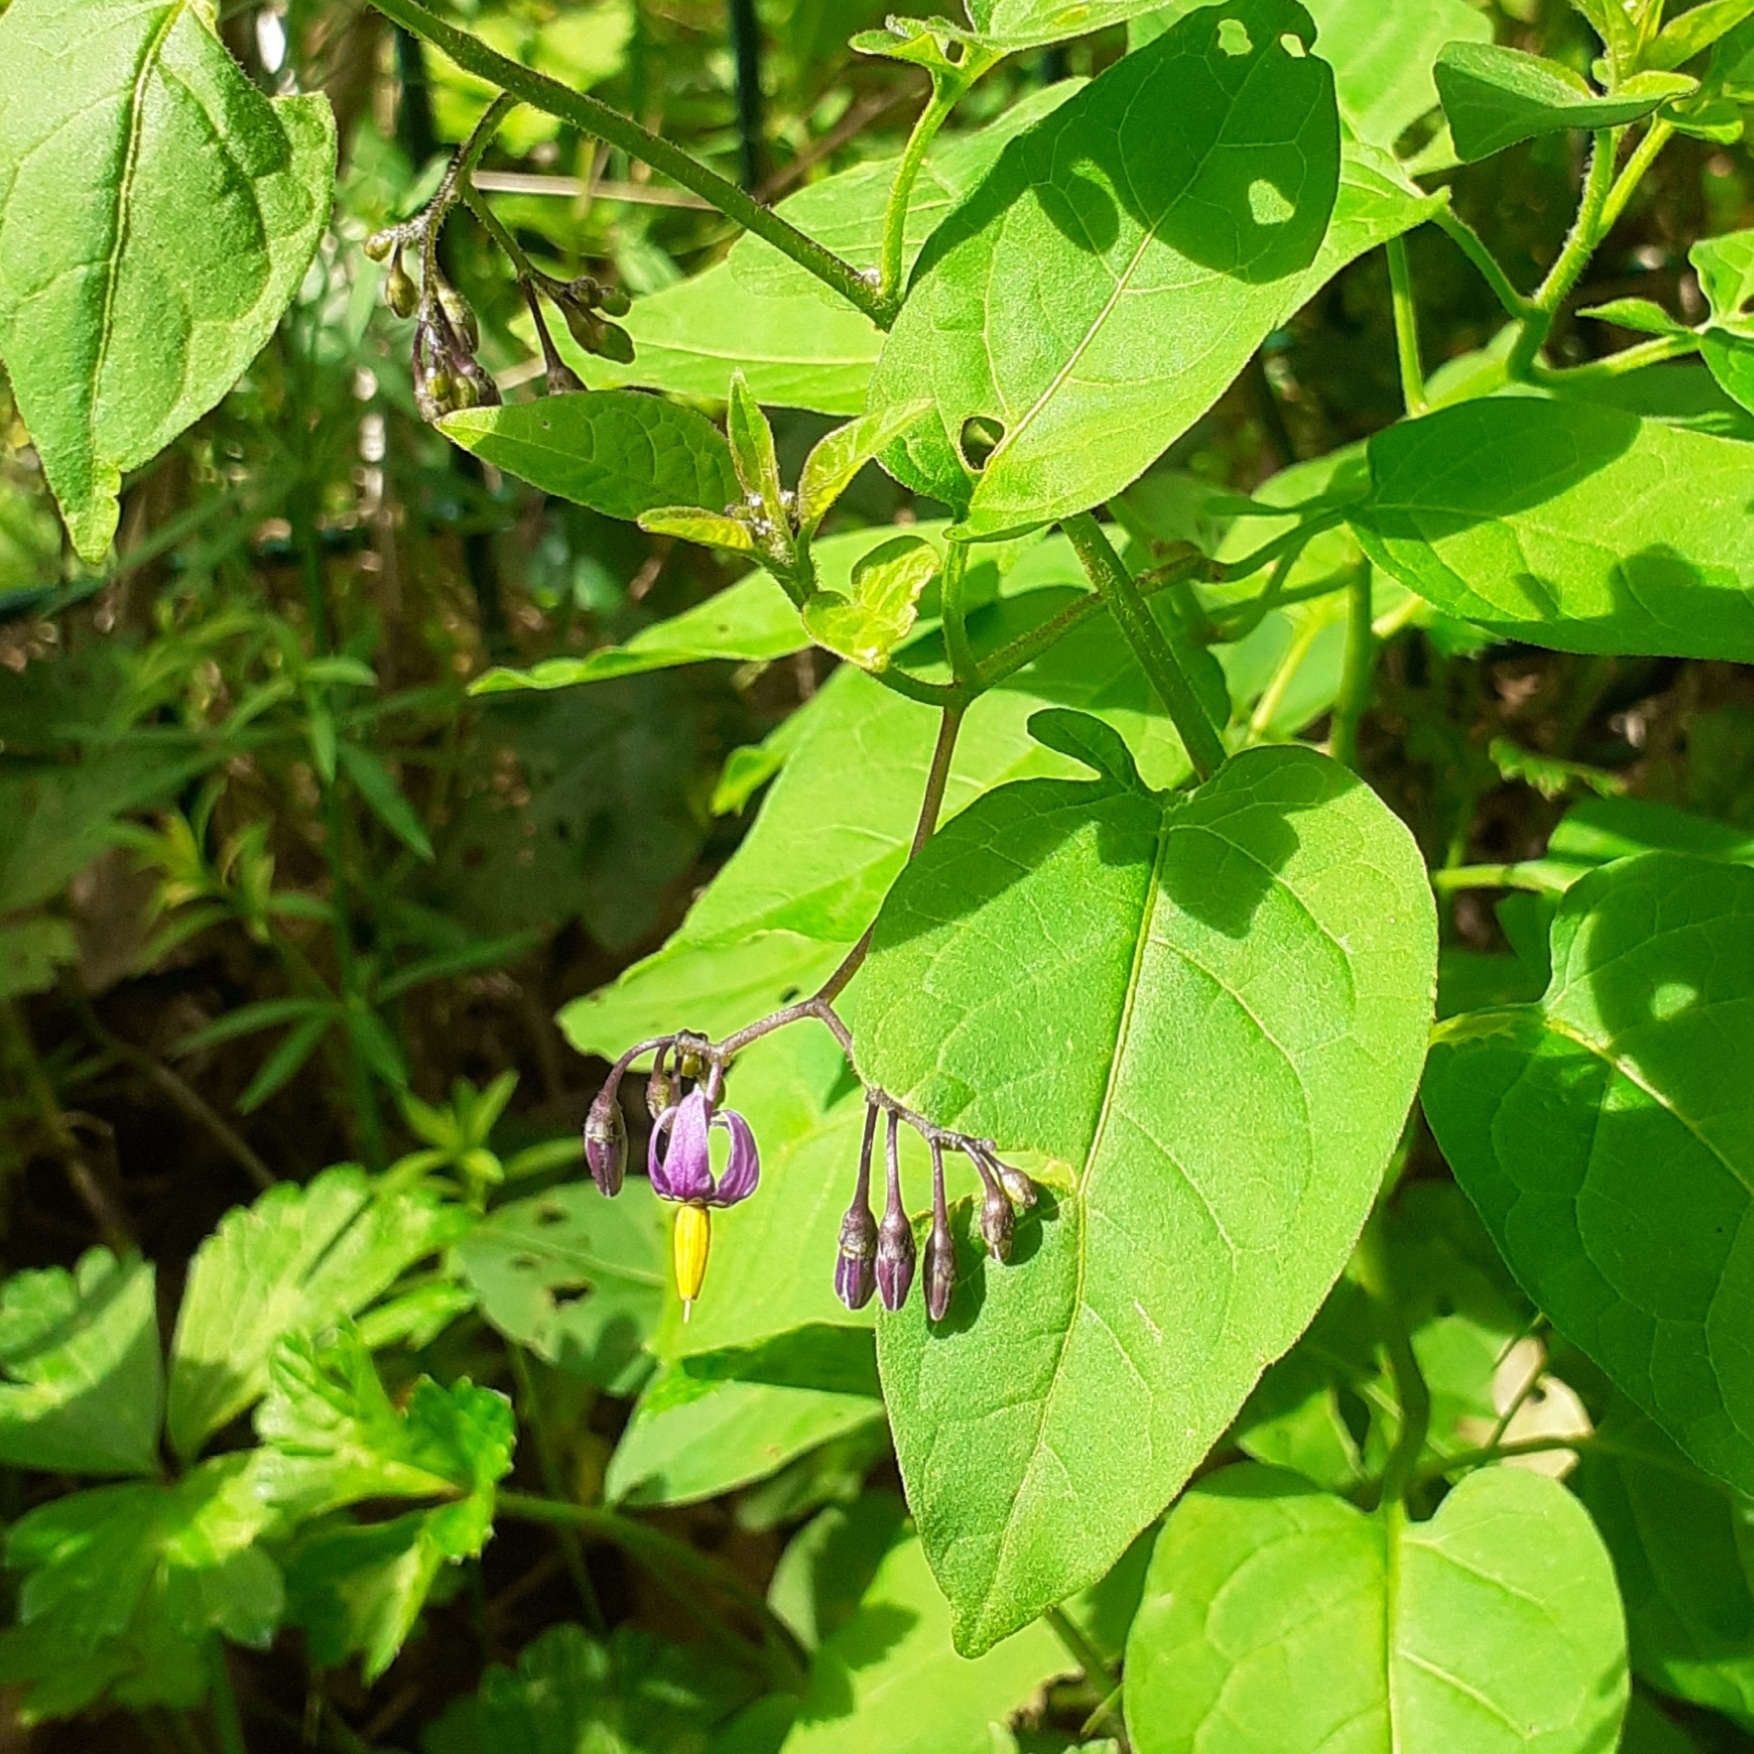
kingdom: Plantae
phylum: Tracheophyta
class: Magnoliopsida
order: Solanales
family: Solanaceae
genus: Solanum
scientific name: Solanum dulcamara
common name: Climbing nightshade
